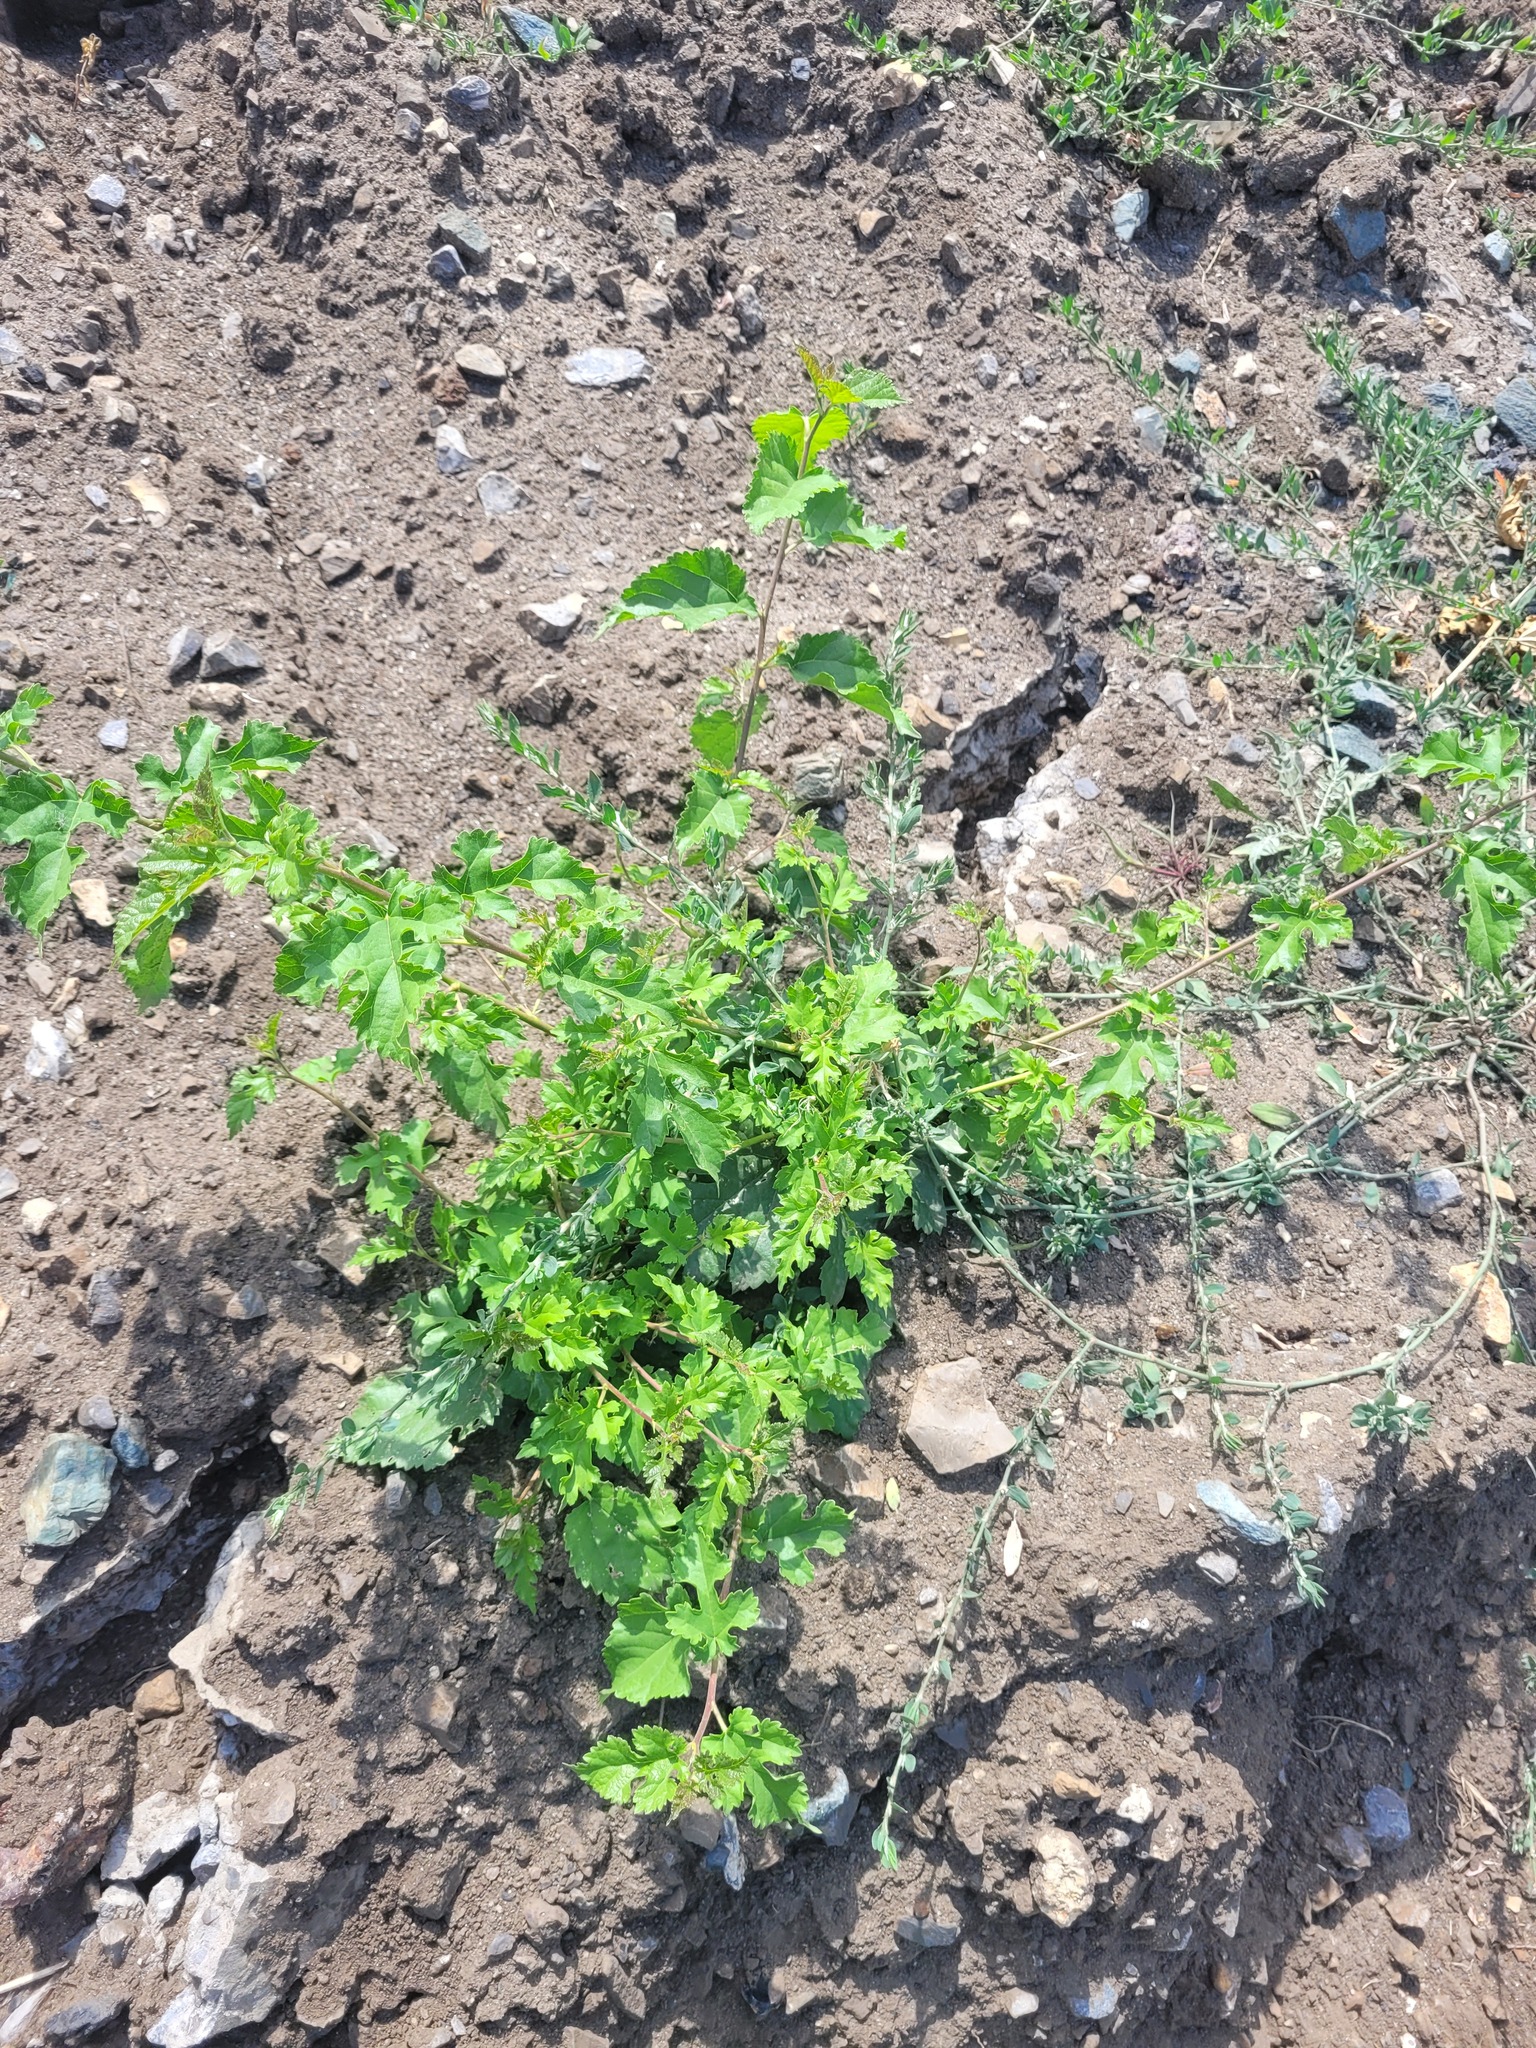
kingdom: Plantae
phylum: Tracheophyta
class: Magnoliopsida
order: Rosales
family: Moraceae
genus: Morus
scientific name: Morus alba
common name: White mulberry
